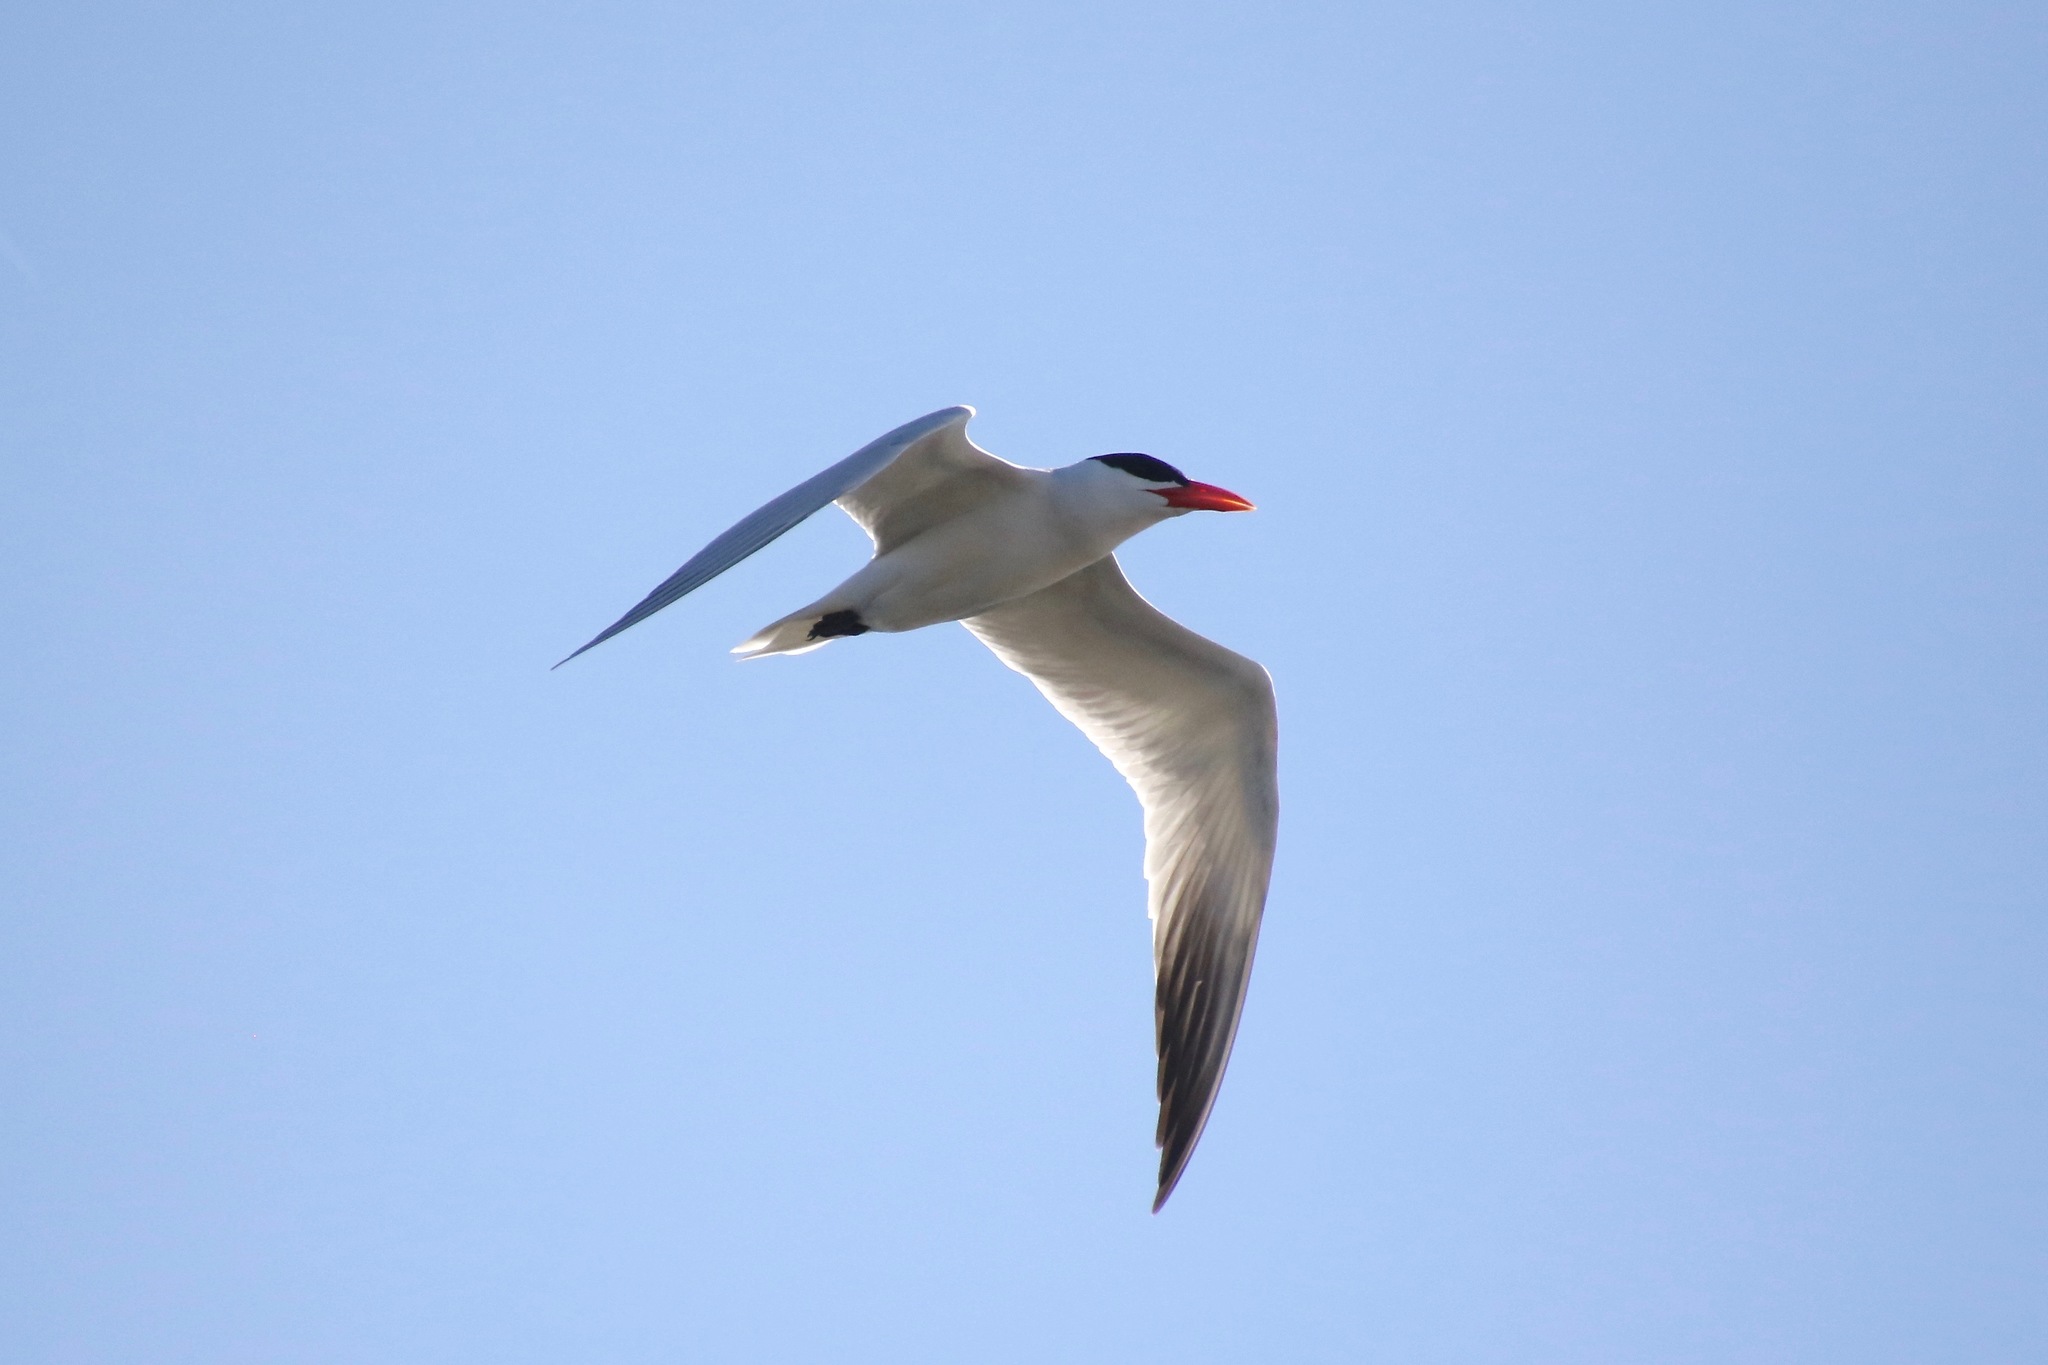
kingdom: Animalia
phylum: Chordata
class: Aves
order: Charadriiformes
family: Laridae
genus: Hydroprogne
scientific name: Hydroprogne caspia
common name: Caspian tern
